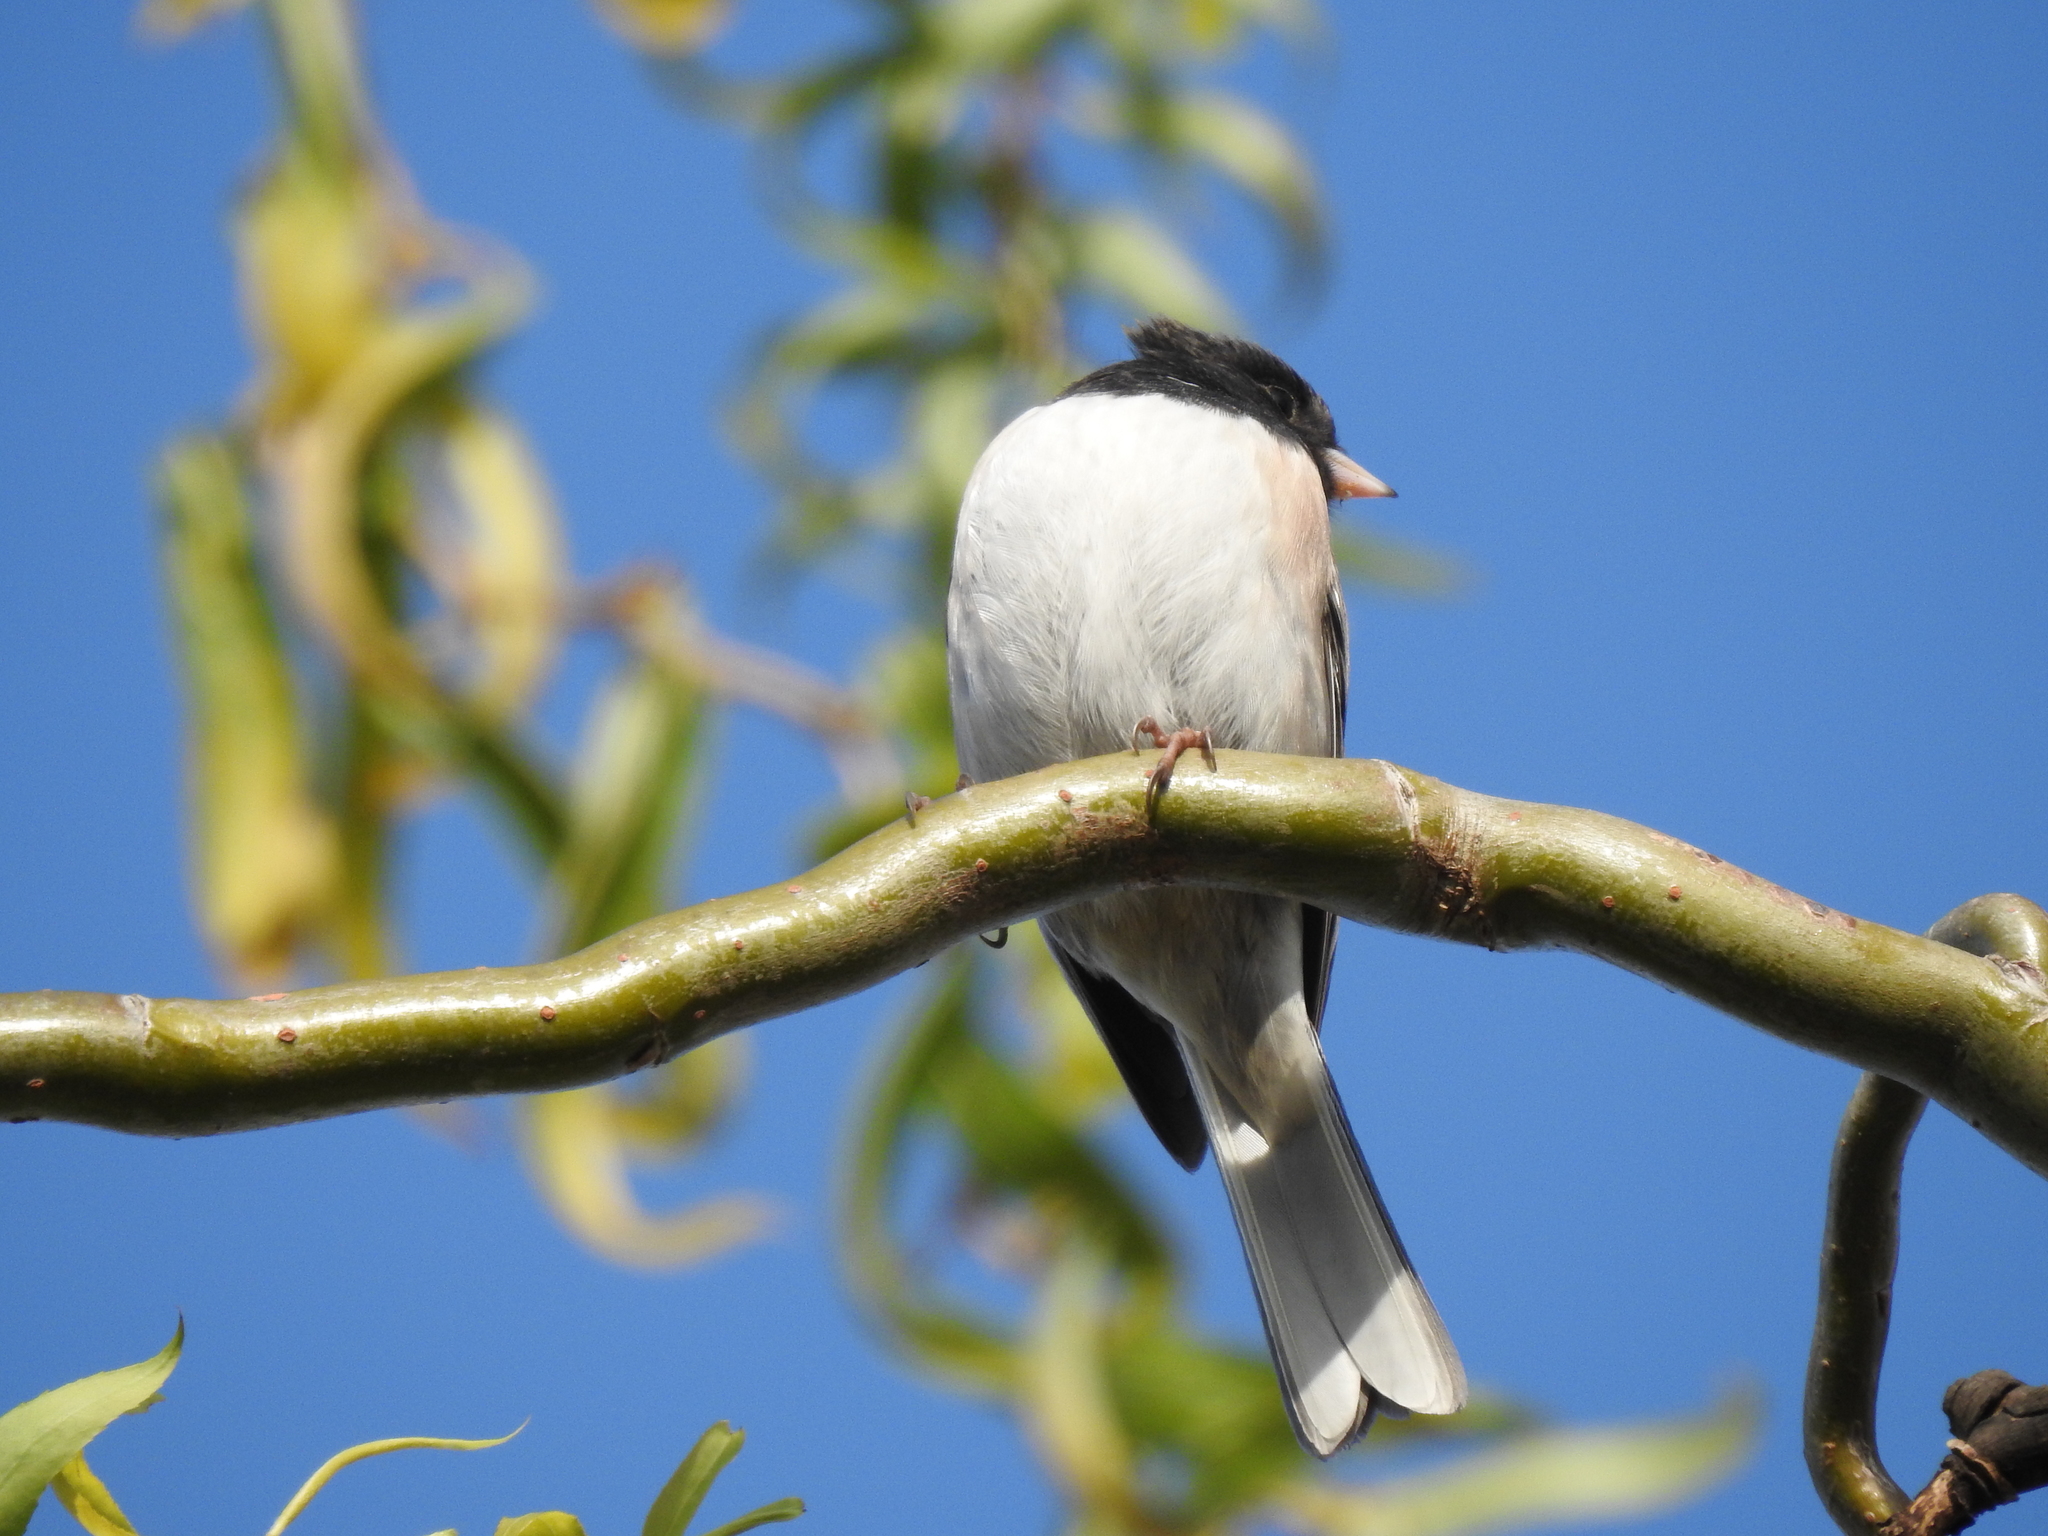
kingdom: Animalia
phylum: Chordata
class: Aves
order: Passeriformes
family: Passerellidae
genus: Junco
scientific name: Junco hyemalis
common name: Dark-eyed junco
